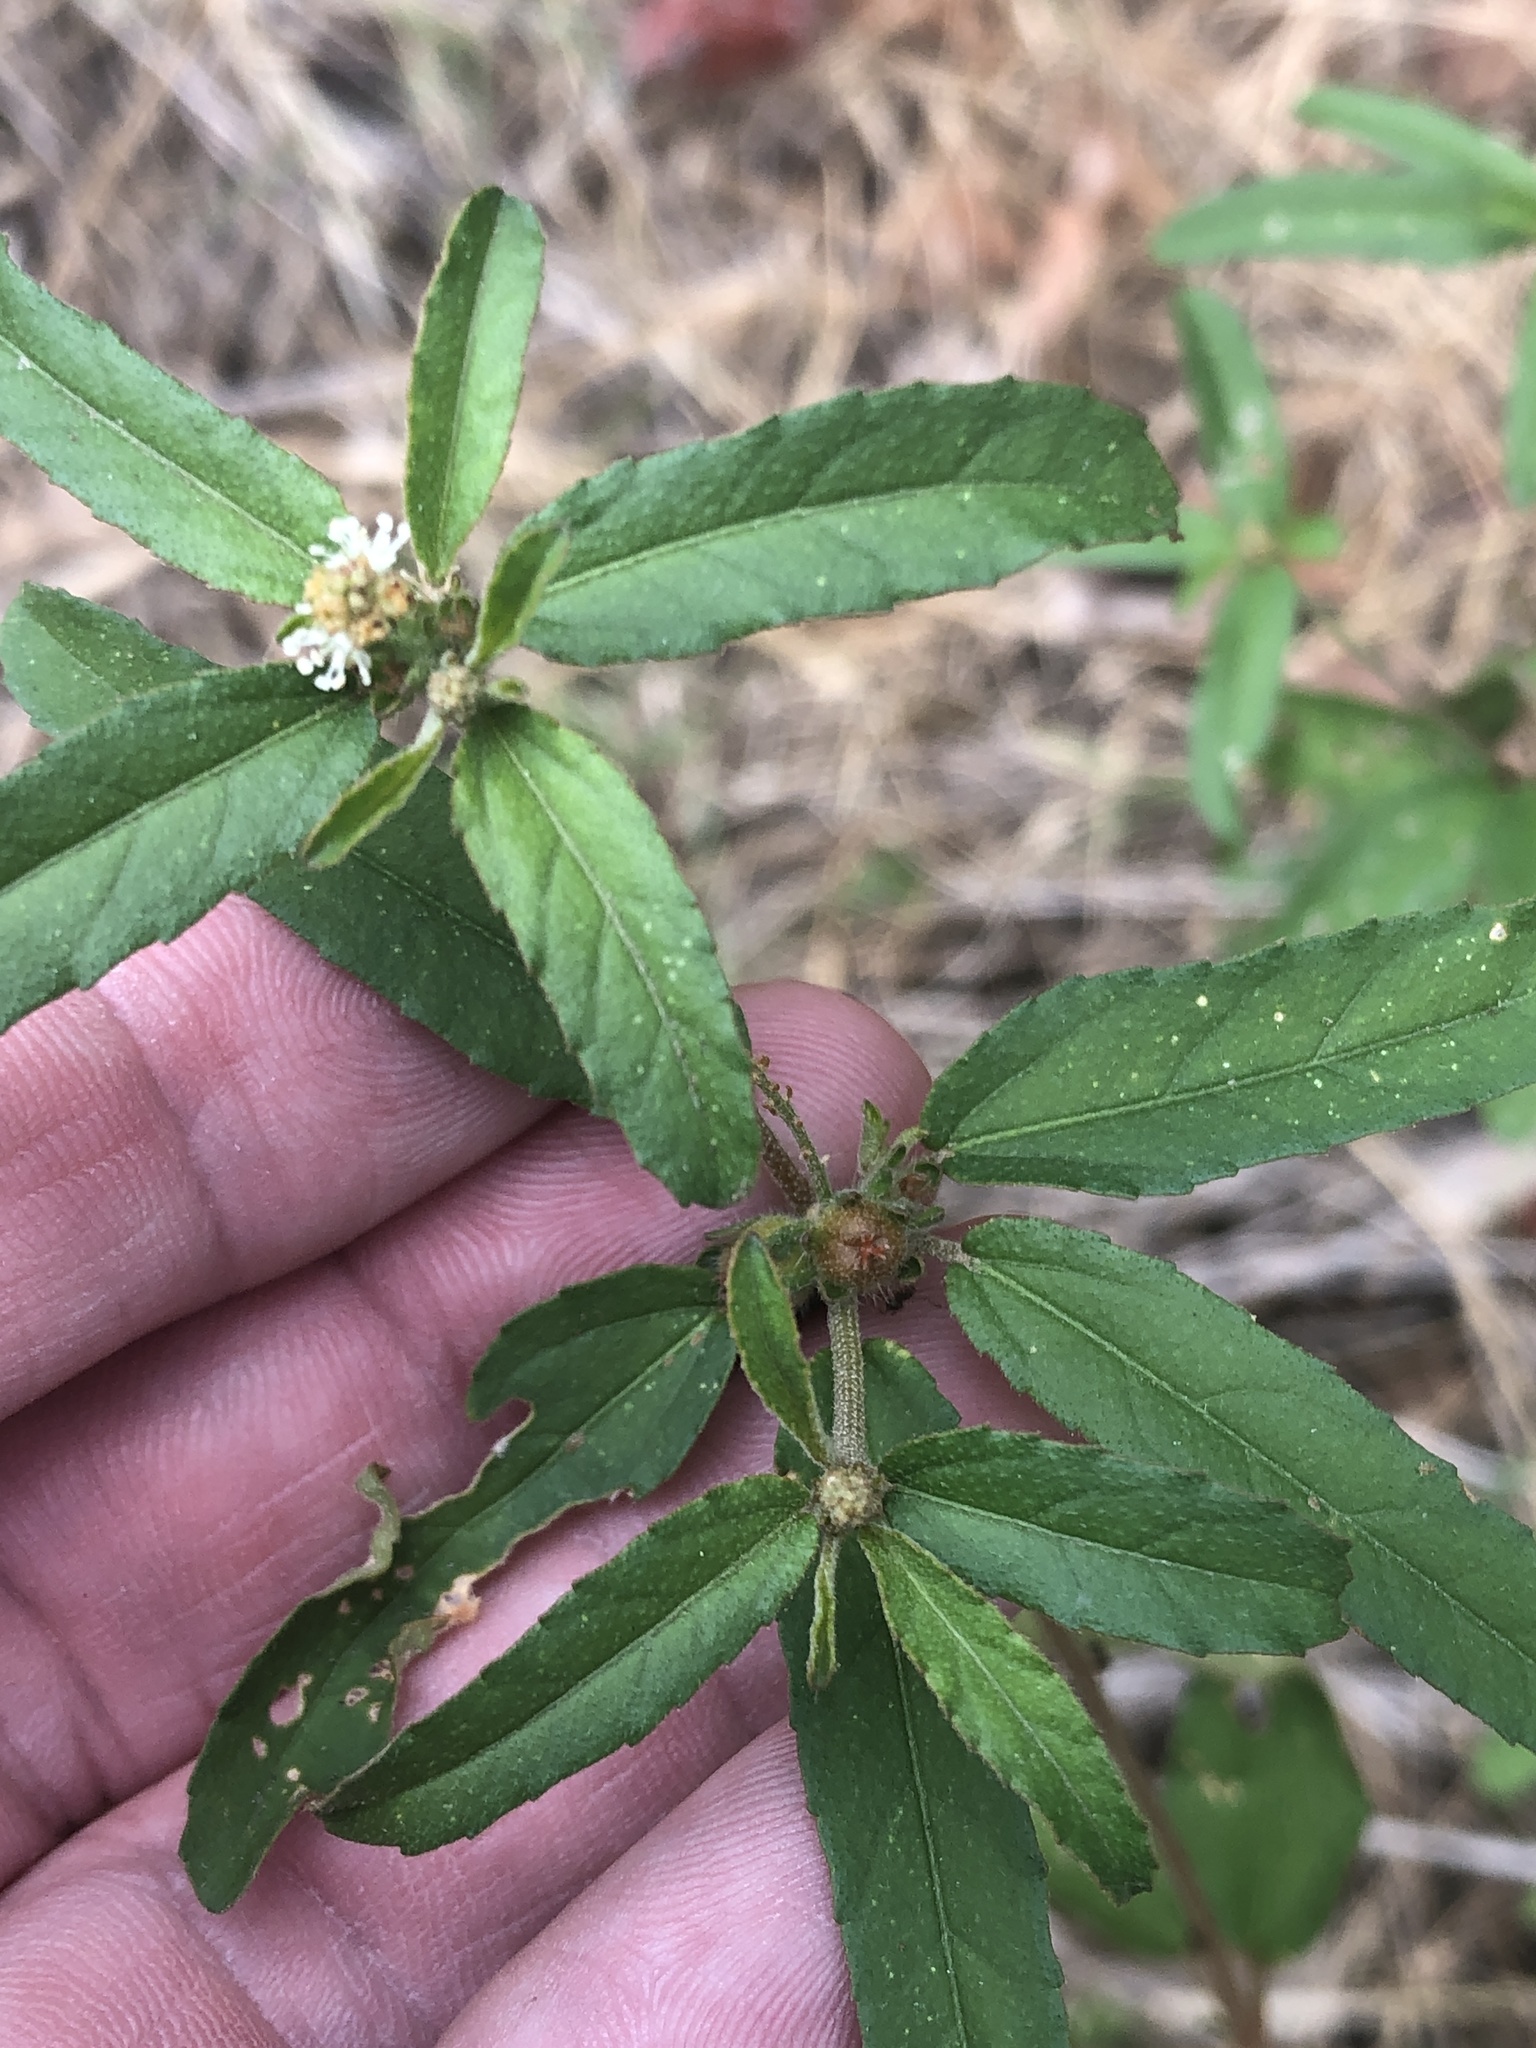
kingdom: Plantae
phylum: Tracheophyta
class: Magnoliopsida
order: Malpighiales
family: Euphorbiaceae
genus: Croton
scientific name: Croton glandulosus
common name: Tropic croton
